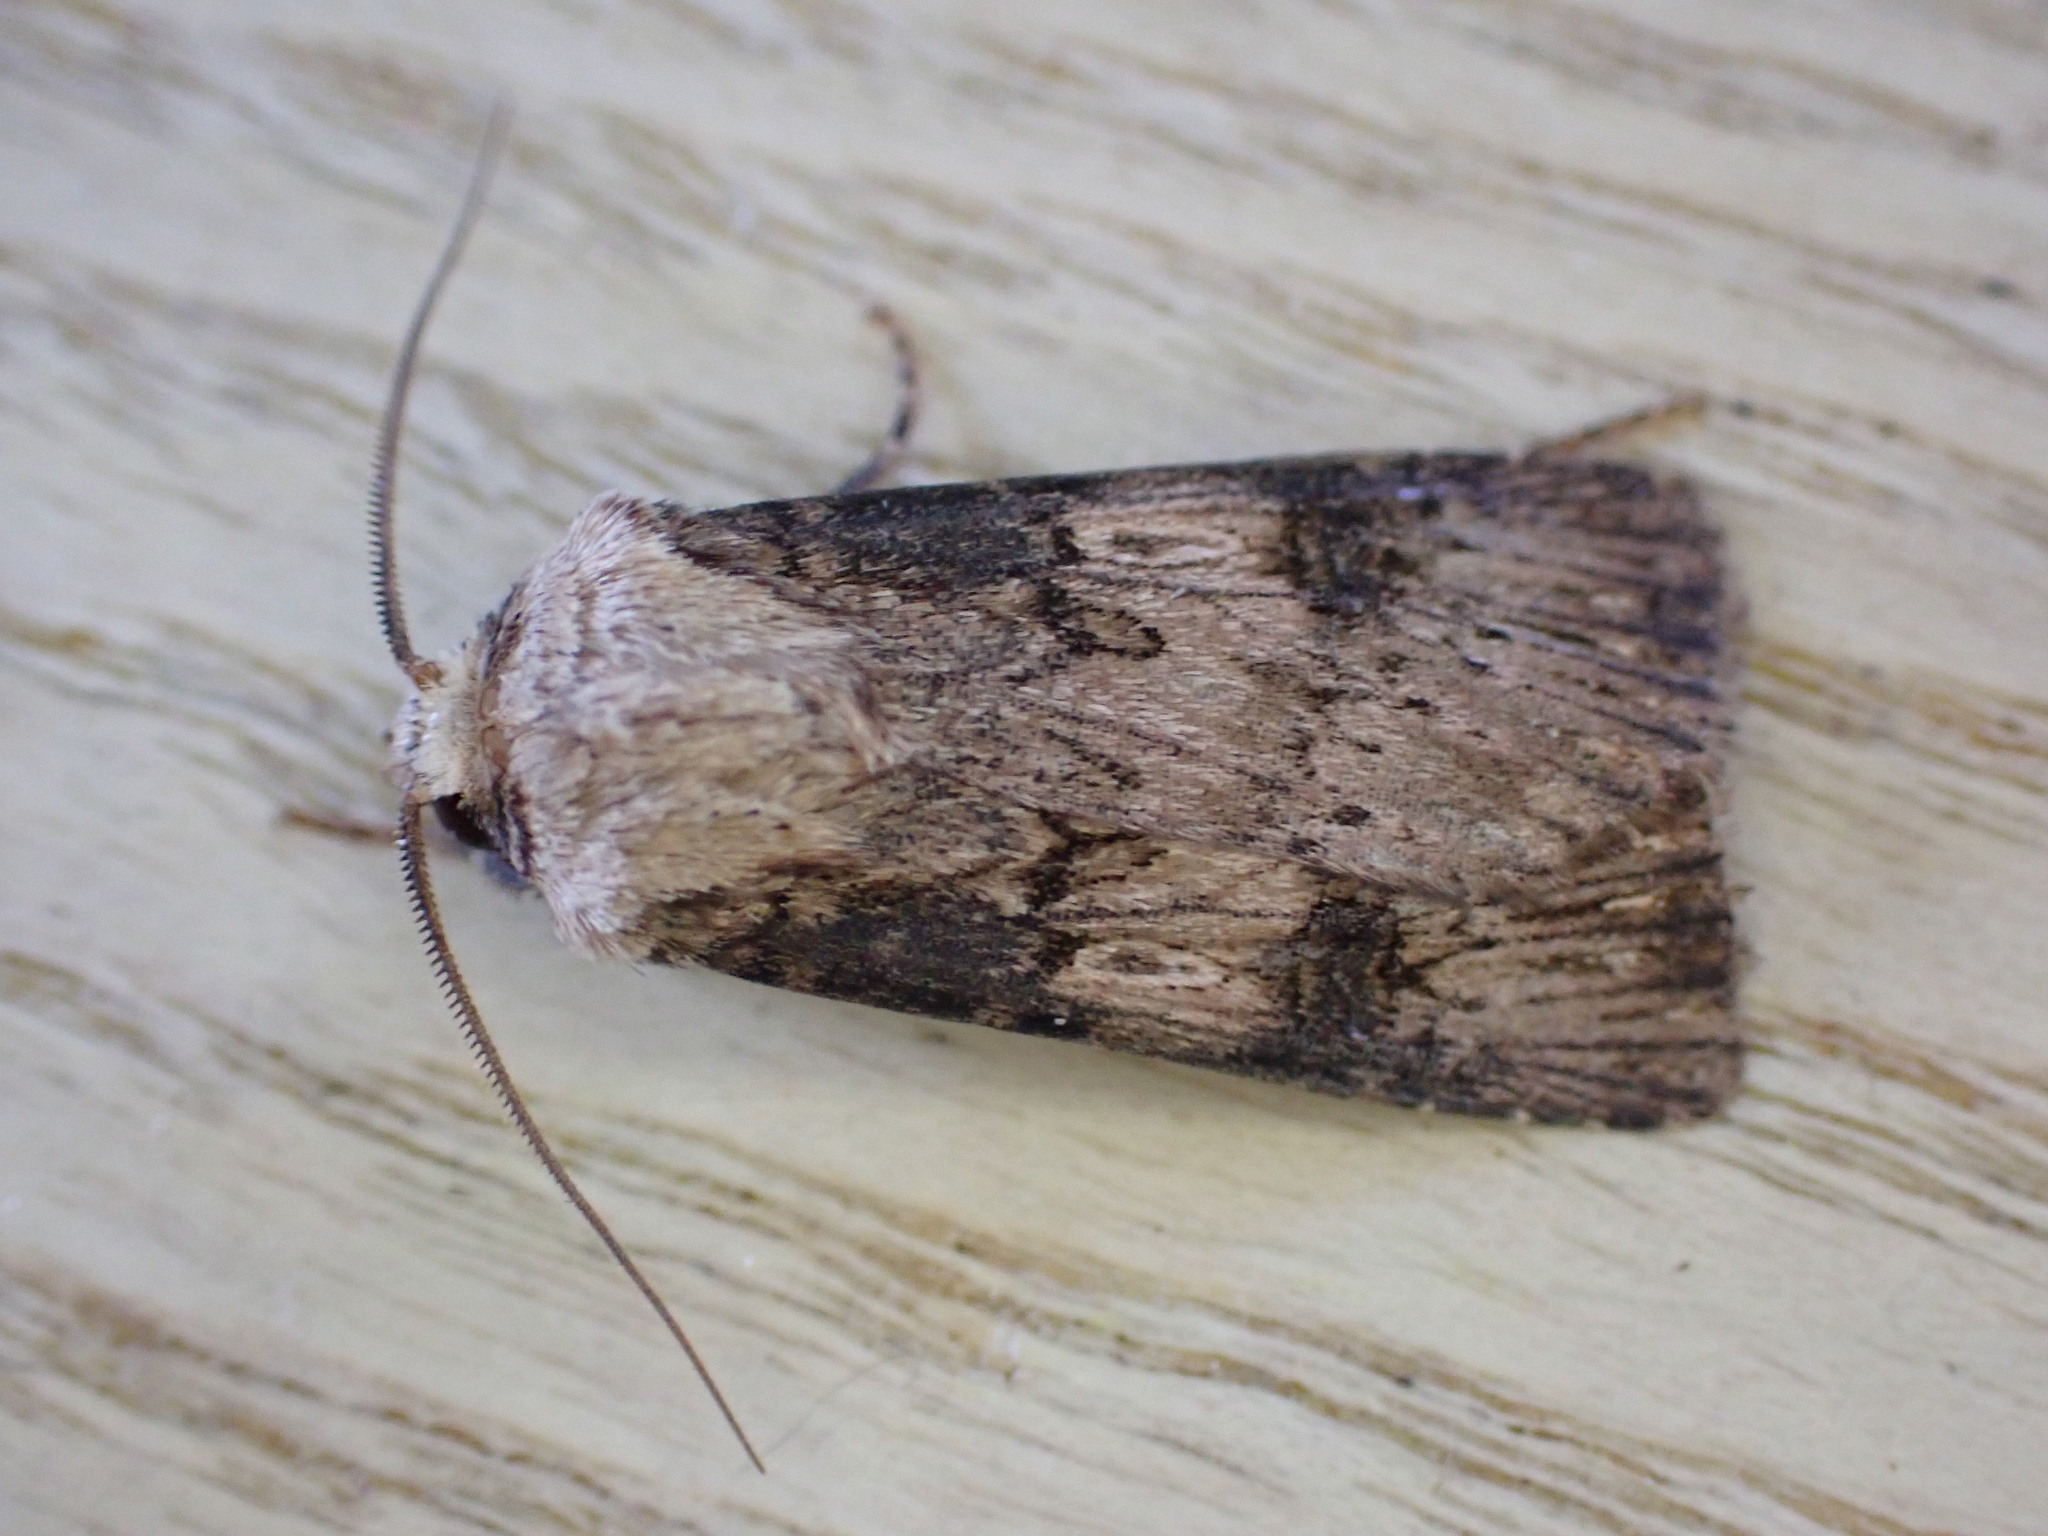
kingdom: Animalia
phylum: Arthropoda
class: Insecta
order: Lepidoptera
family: Noctuidae
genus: Agrotis
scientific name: Agrotis puta
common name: Shuttle-shaped dart
